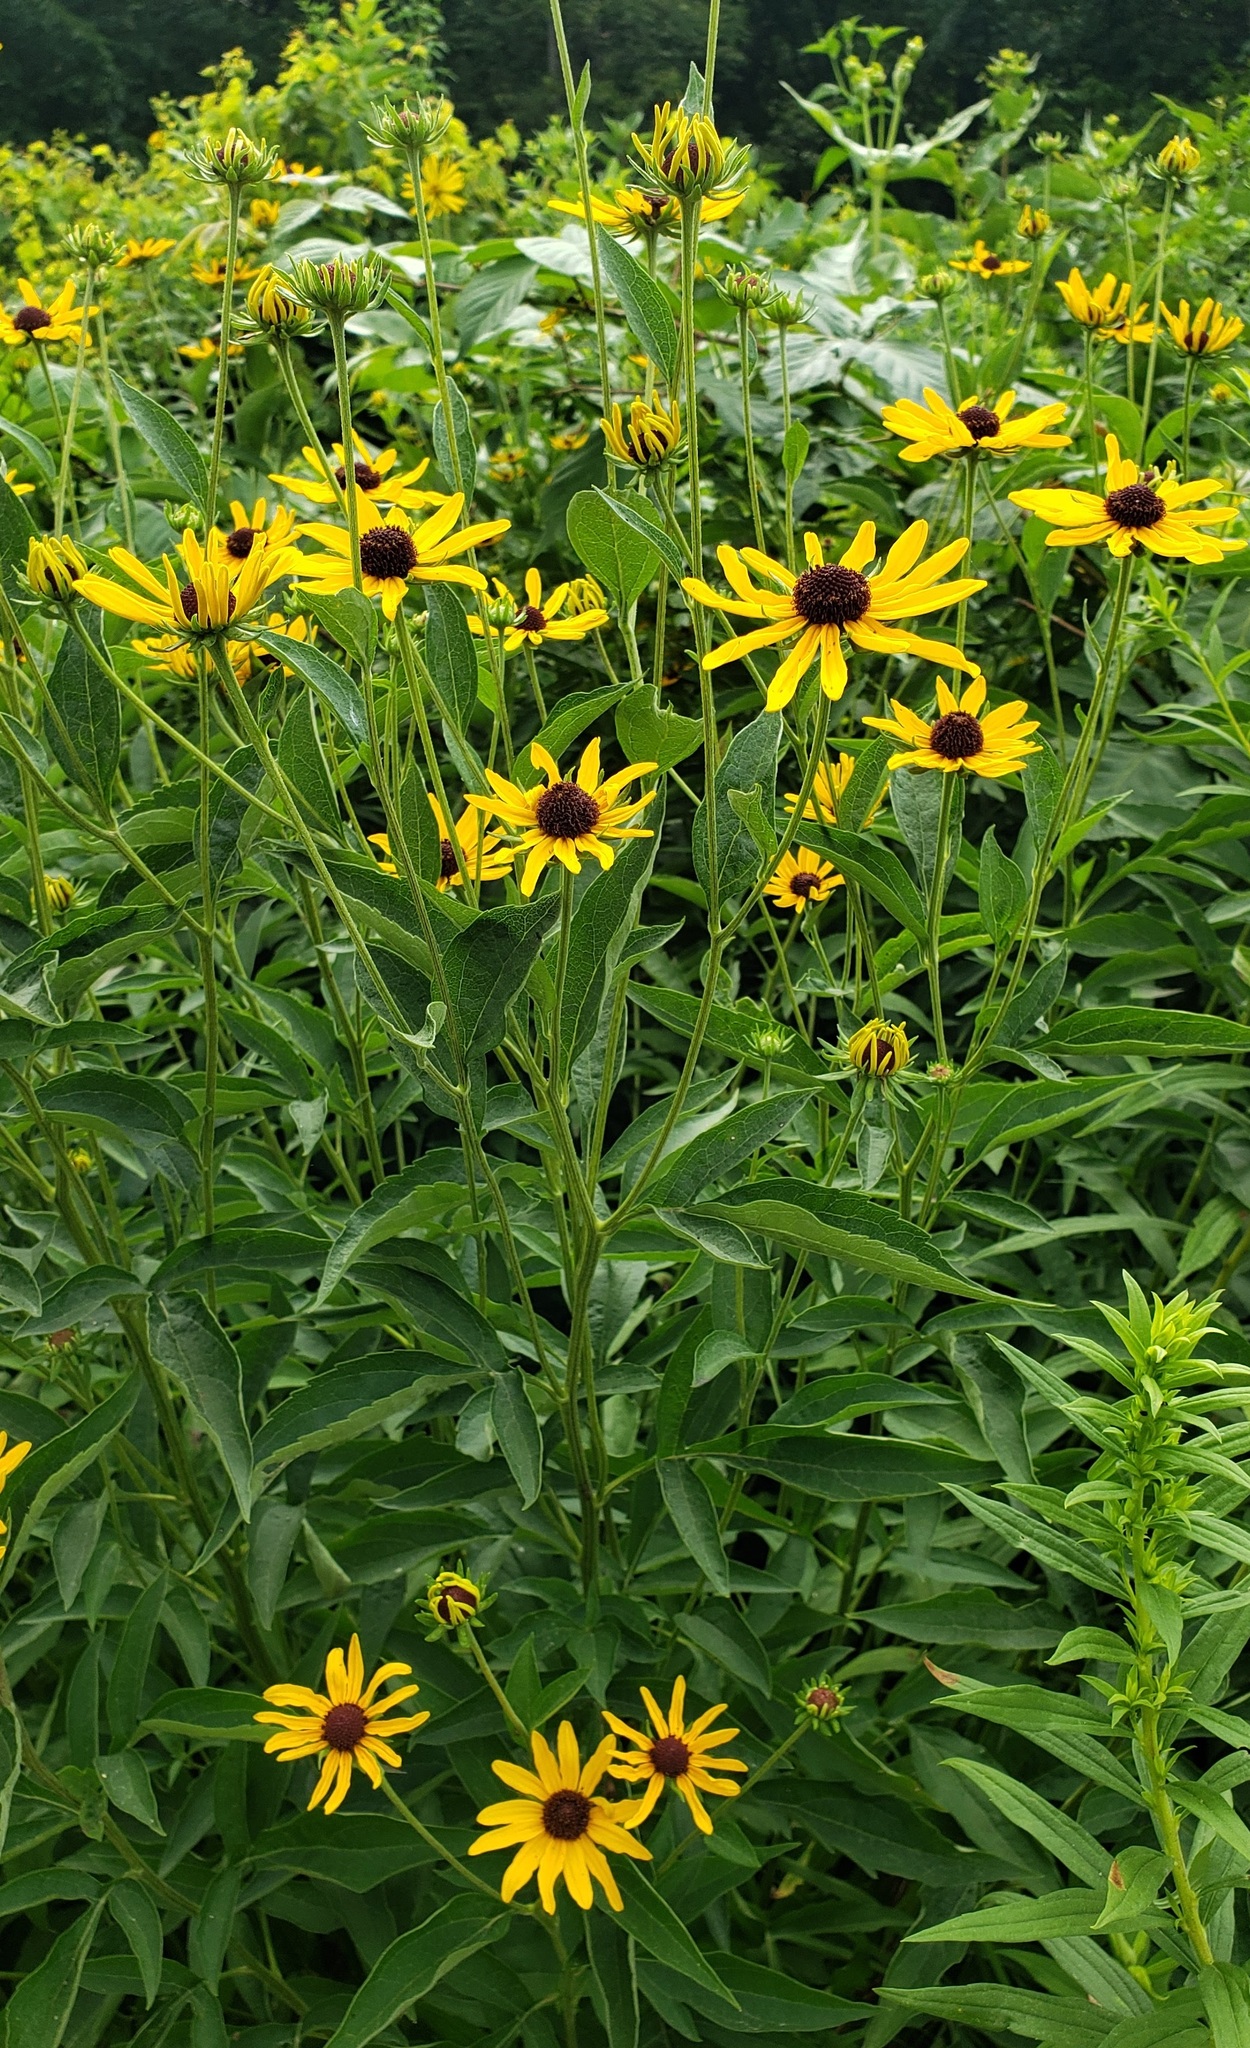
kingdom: Plantae
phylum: Tracheophyta
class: Magnoliopsida
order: Asterales
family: Asteraceae
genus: Rudbeckia
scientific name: Rudbeckia subtomentosa
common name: Sweet coneflower
